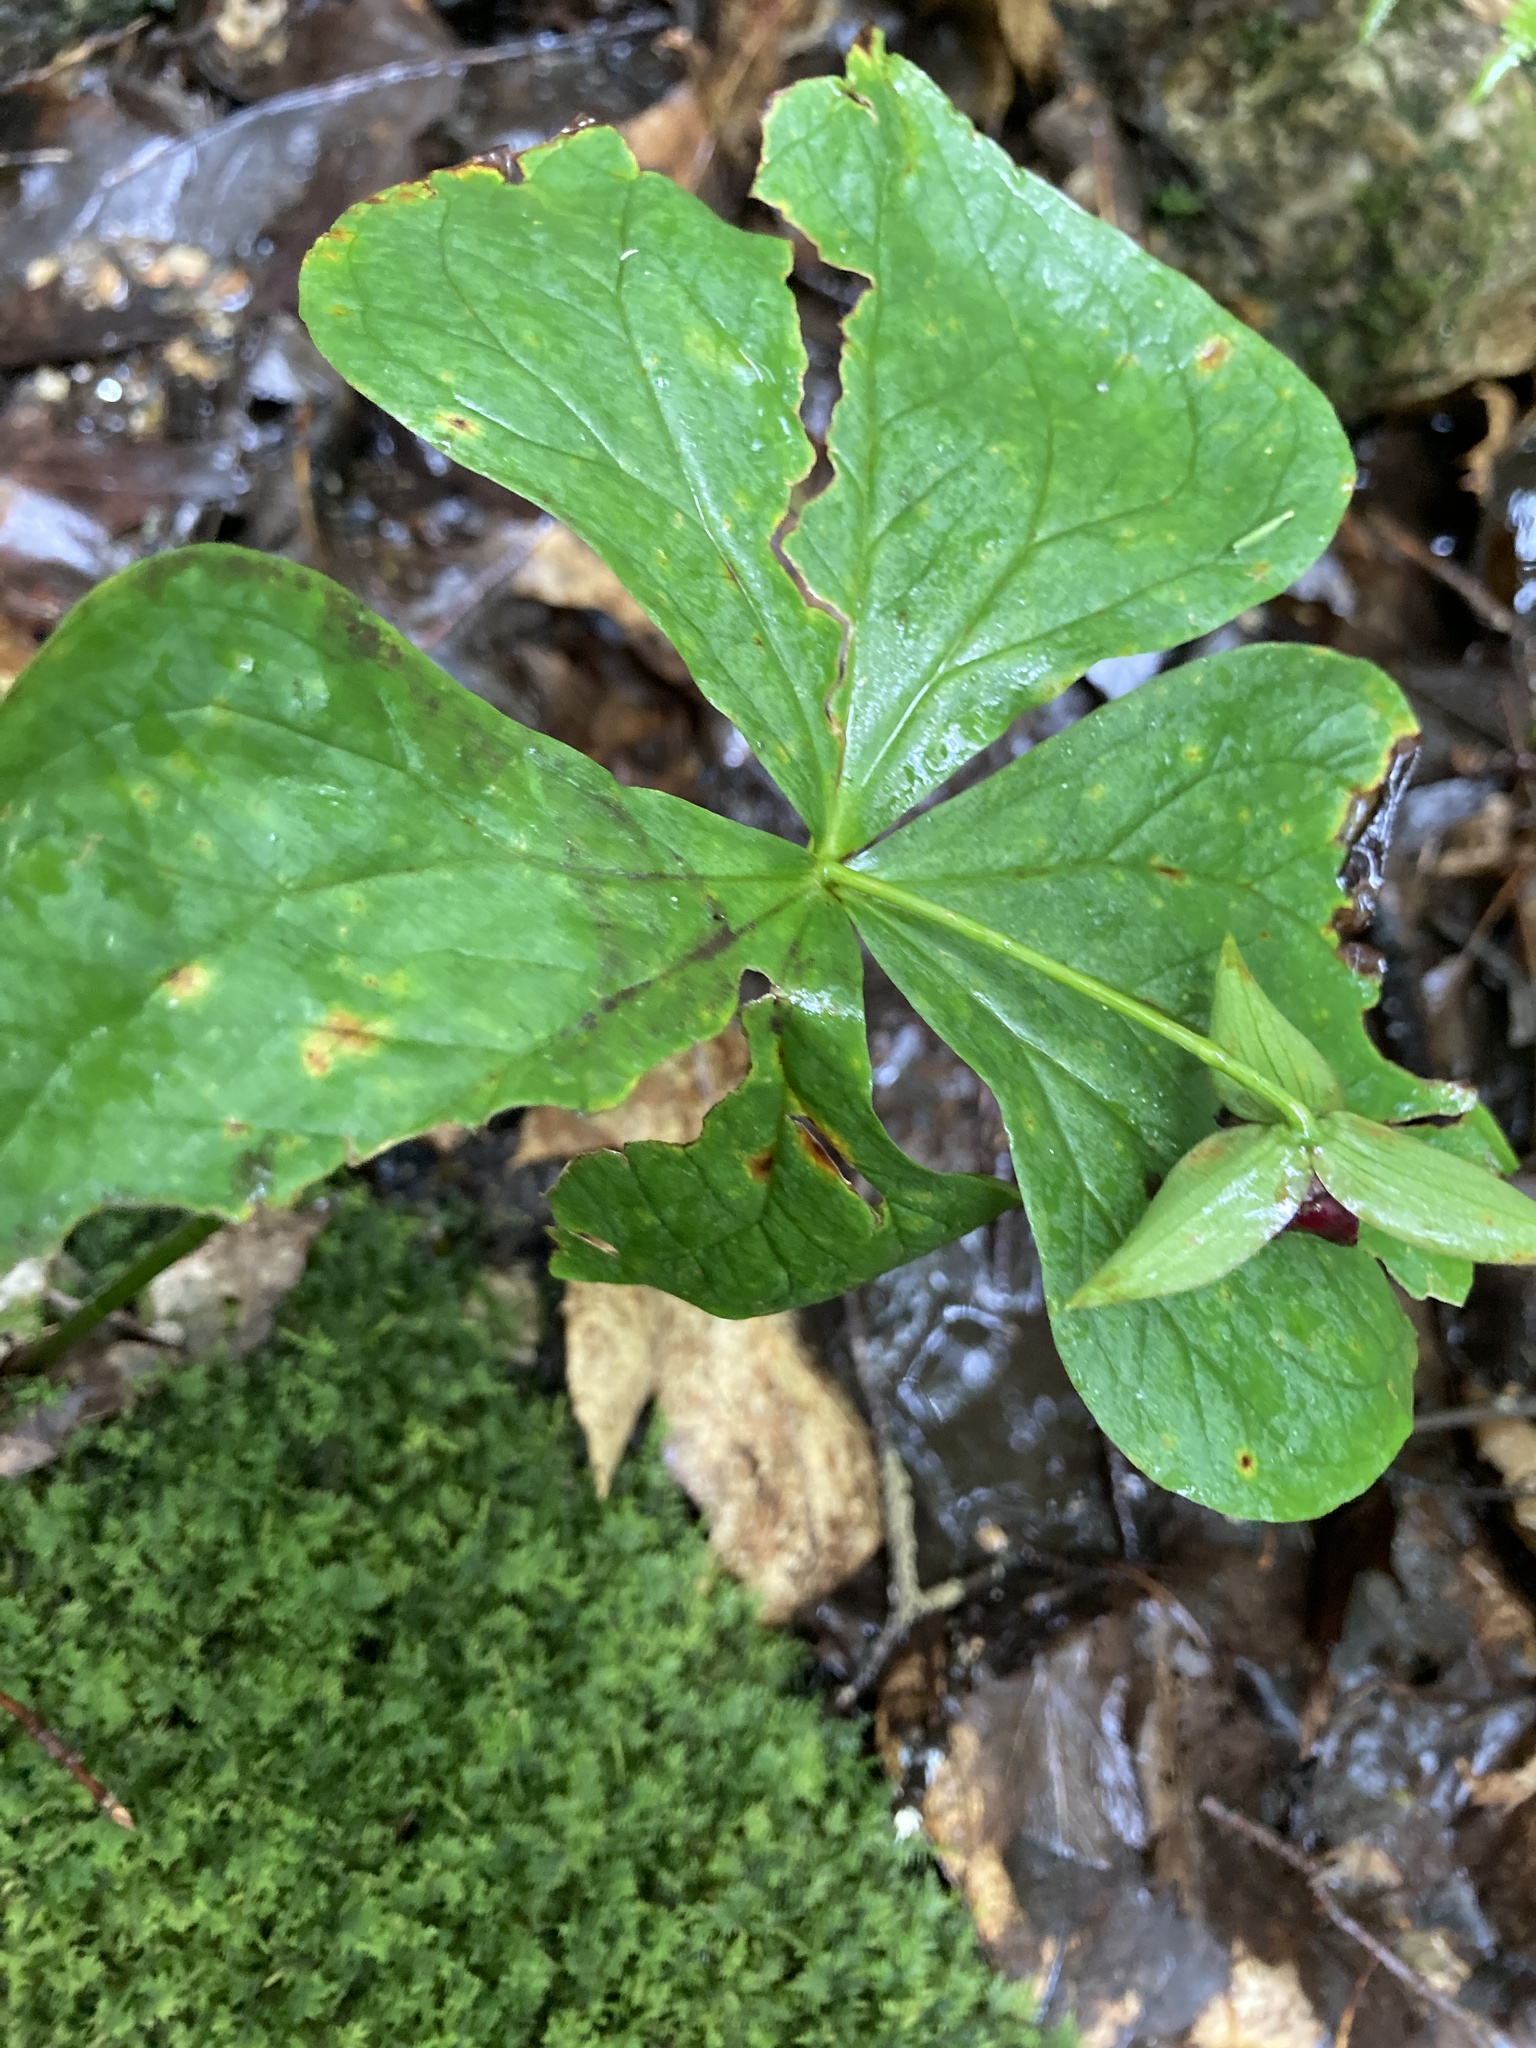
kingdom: Plantae
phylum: Tracheophyta
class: Liliopsida
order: Liliales
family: Melanthiaceae
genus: Trillium
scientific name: Trillium erectum
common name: Purple trillium
